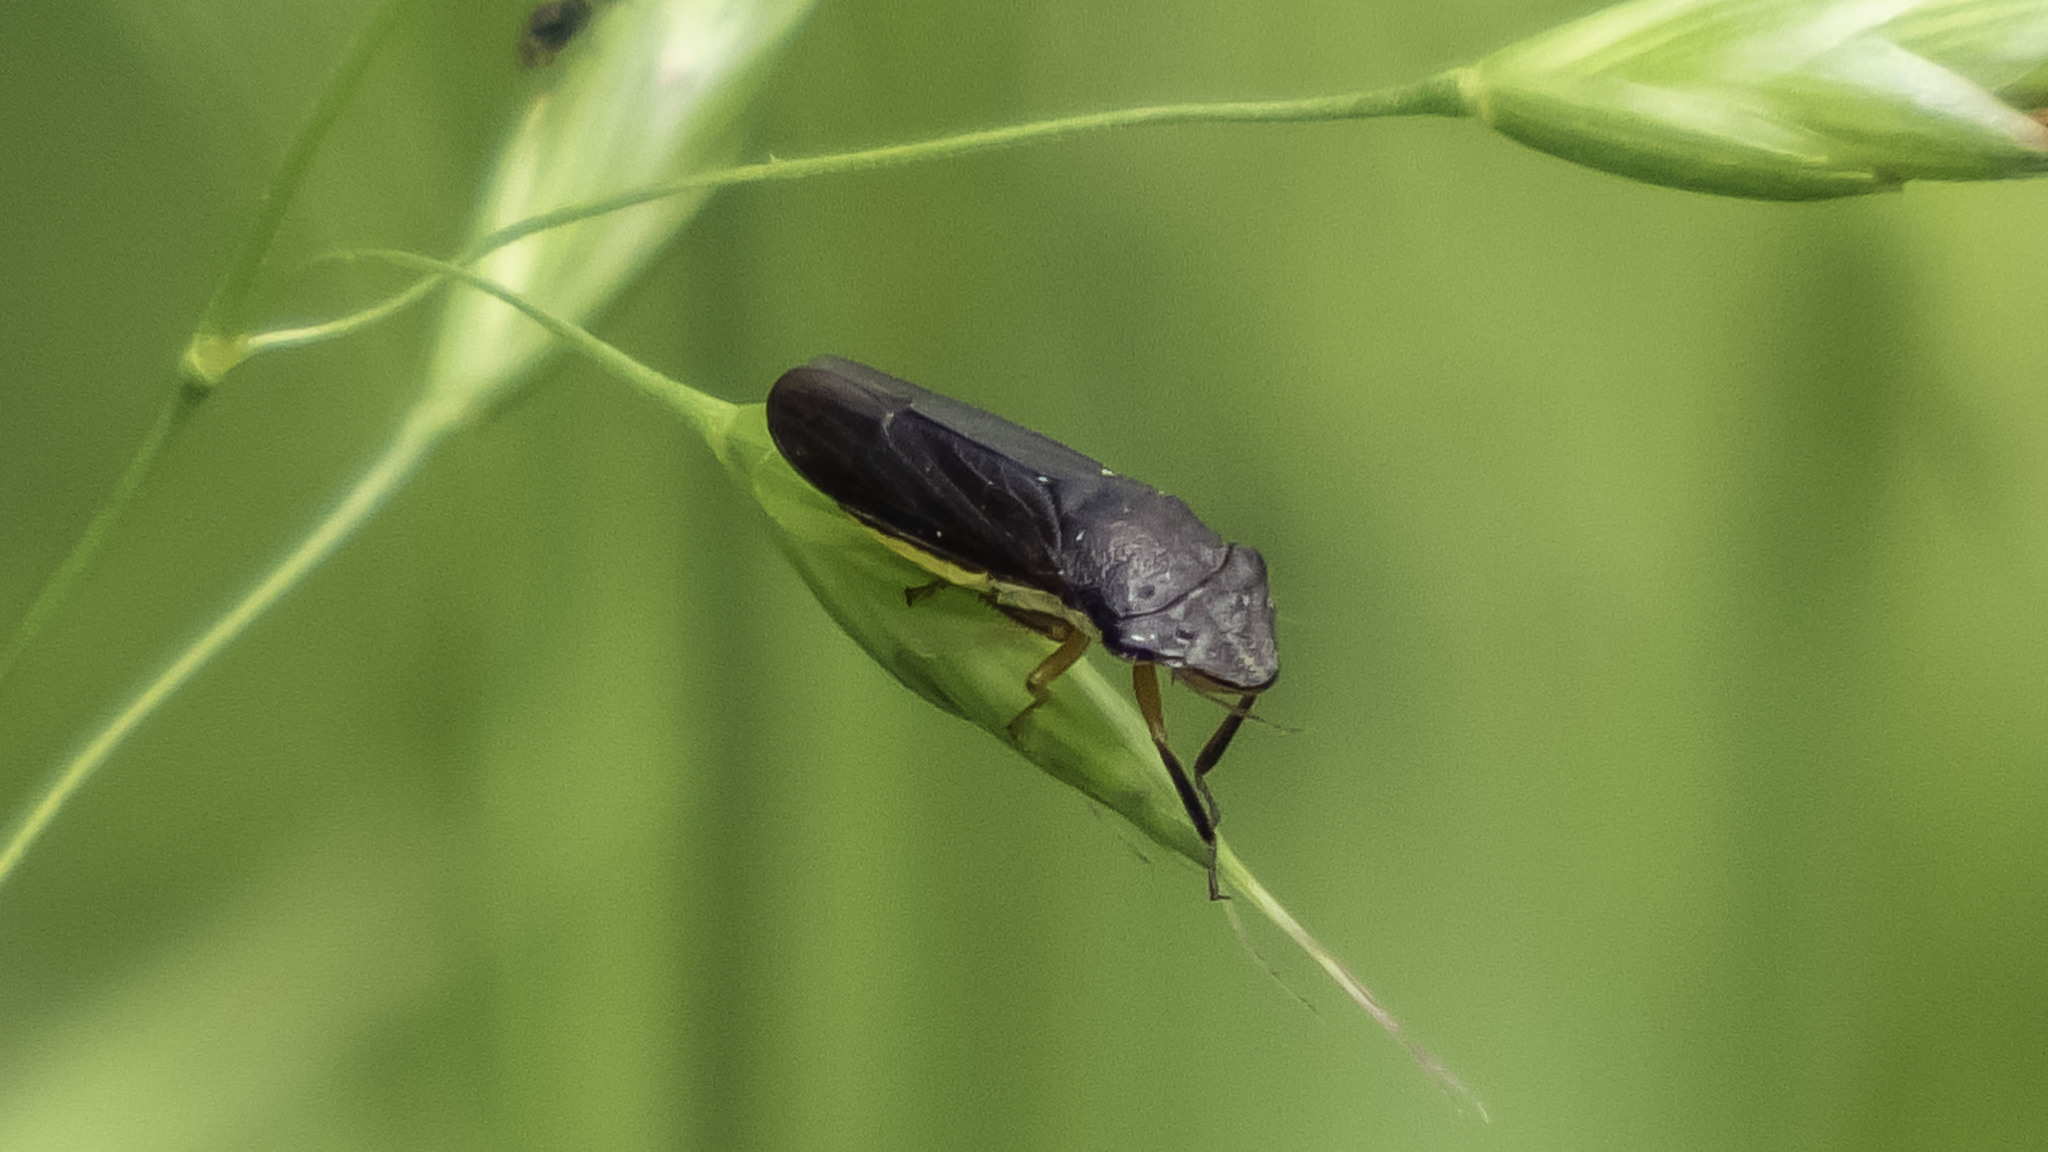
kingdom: Animalia
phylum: Arthropoda
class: Insecta
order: Hemiptera
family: Cicadellidae
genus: Homalodisca
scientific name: Homalodisca insolita
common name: Johnson grass sharpshooter
